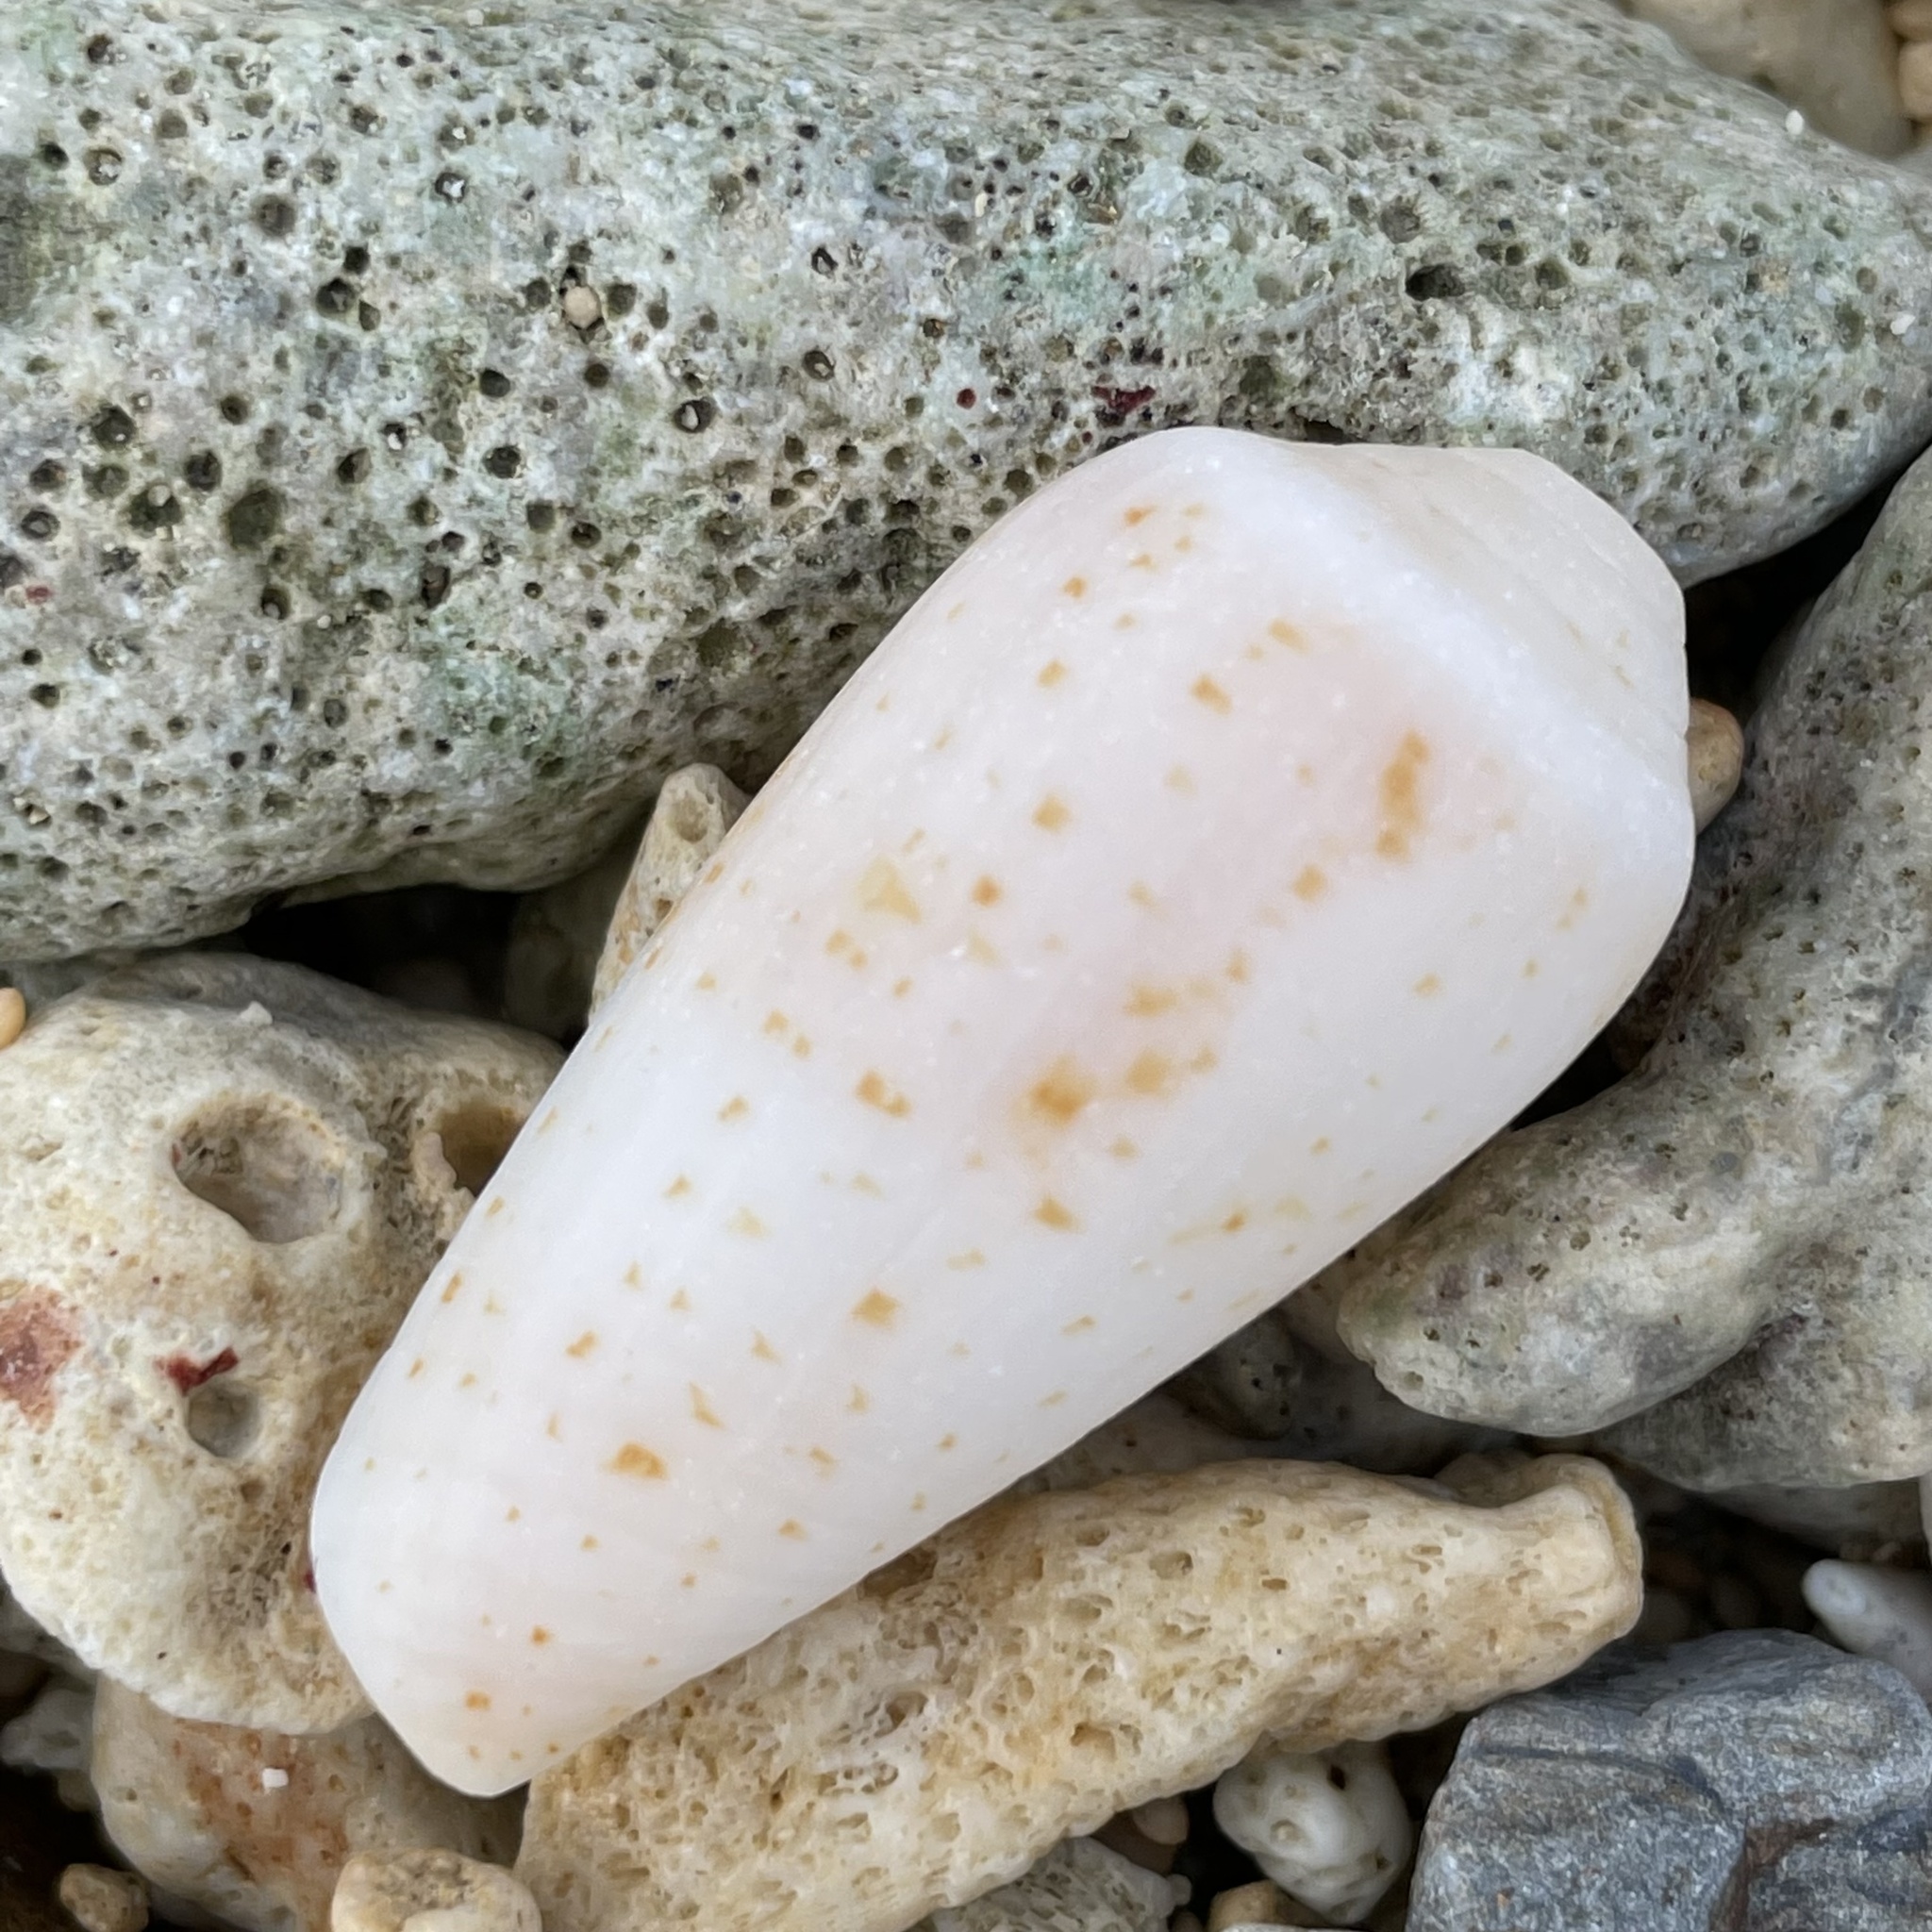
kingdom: Animalia
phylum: Mollusca
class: Gastropoda
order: Neogastropoda
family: Conidae
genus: Conus
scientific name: Conus cinereus
